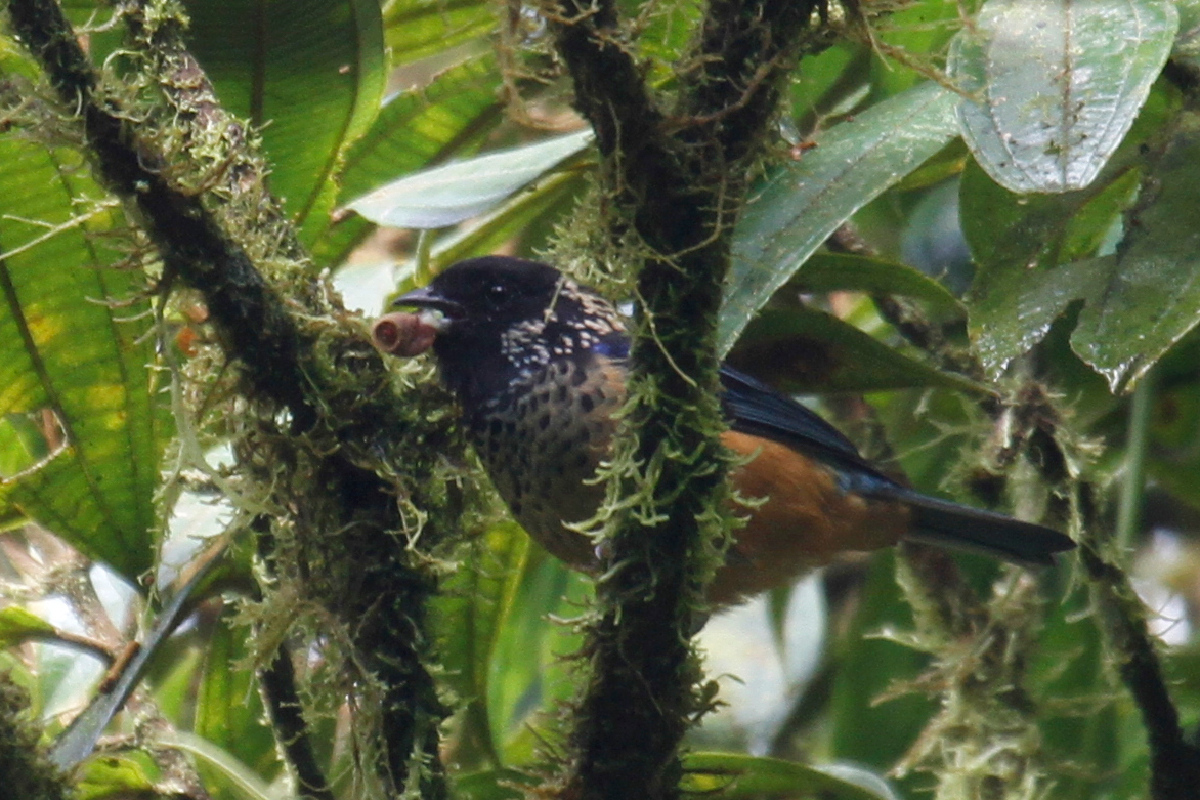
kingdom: Animalia
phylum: Chordata
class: Aves
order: Passeriformes
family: Thraupidae
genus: Tangara
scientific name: Tangara dowii
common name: Spangle-cheeked tanager
